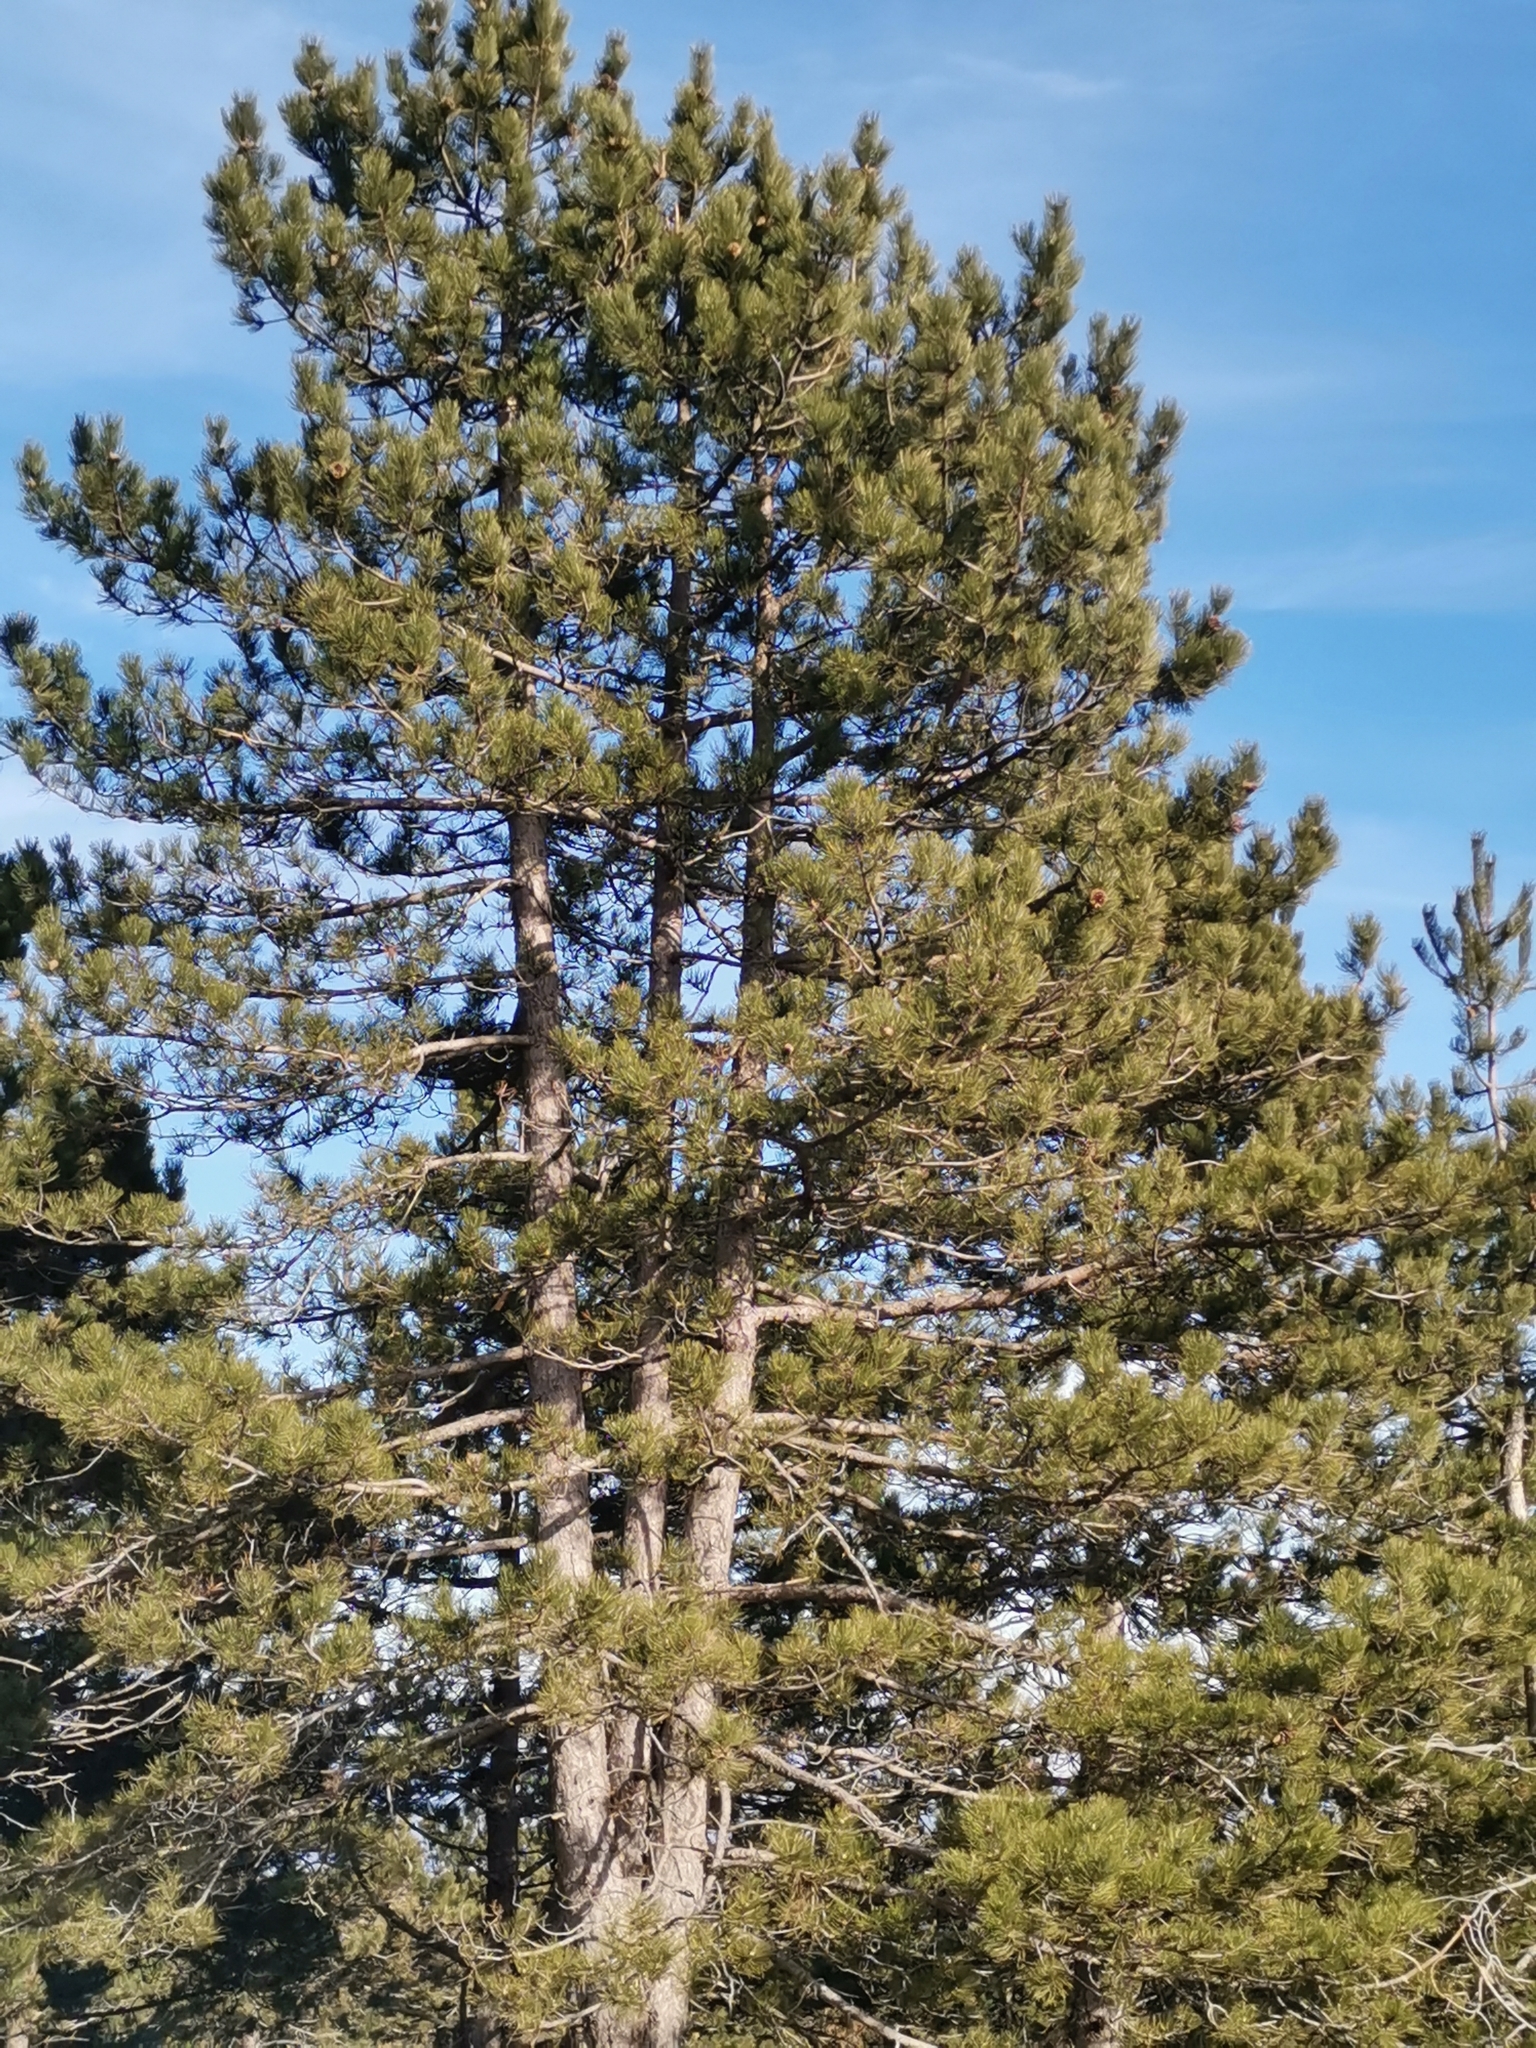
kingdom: Plantae
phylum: Tracheophyta
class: Pinopsida
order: Pinales
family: Pinaceae
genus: Pinus
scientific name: Pinus nigra
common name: Austrian pine
